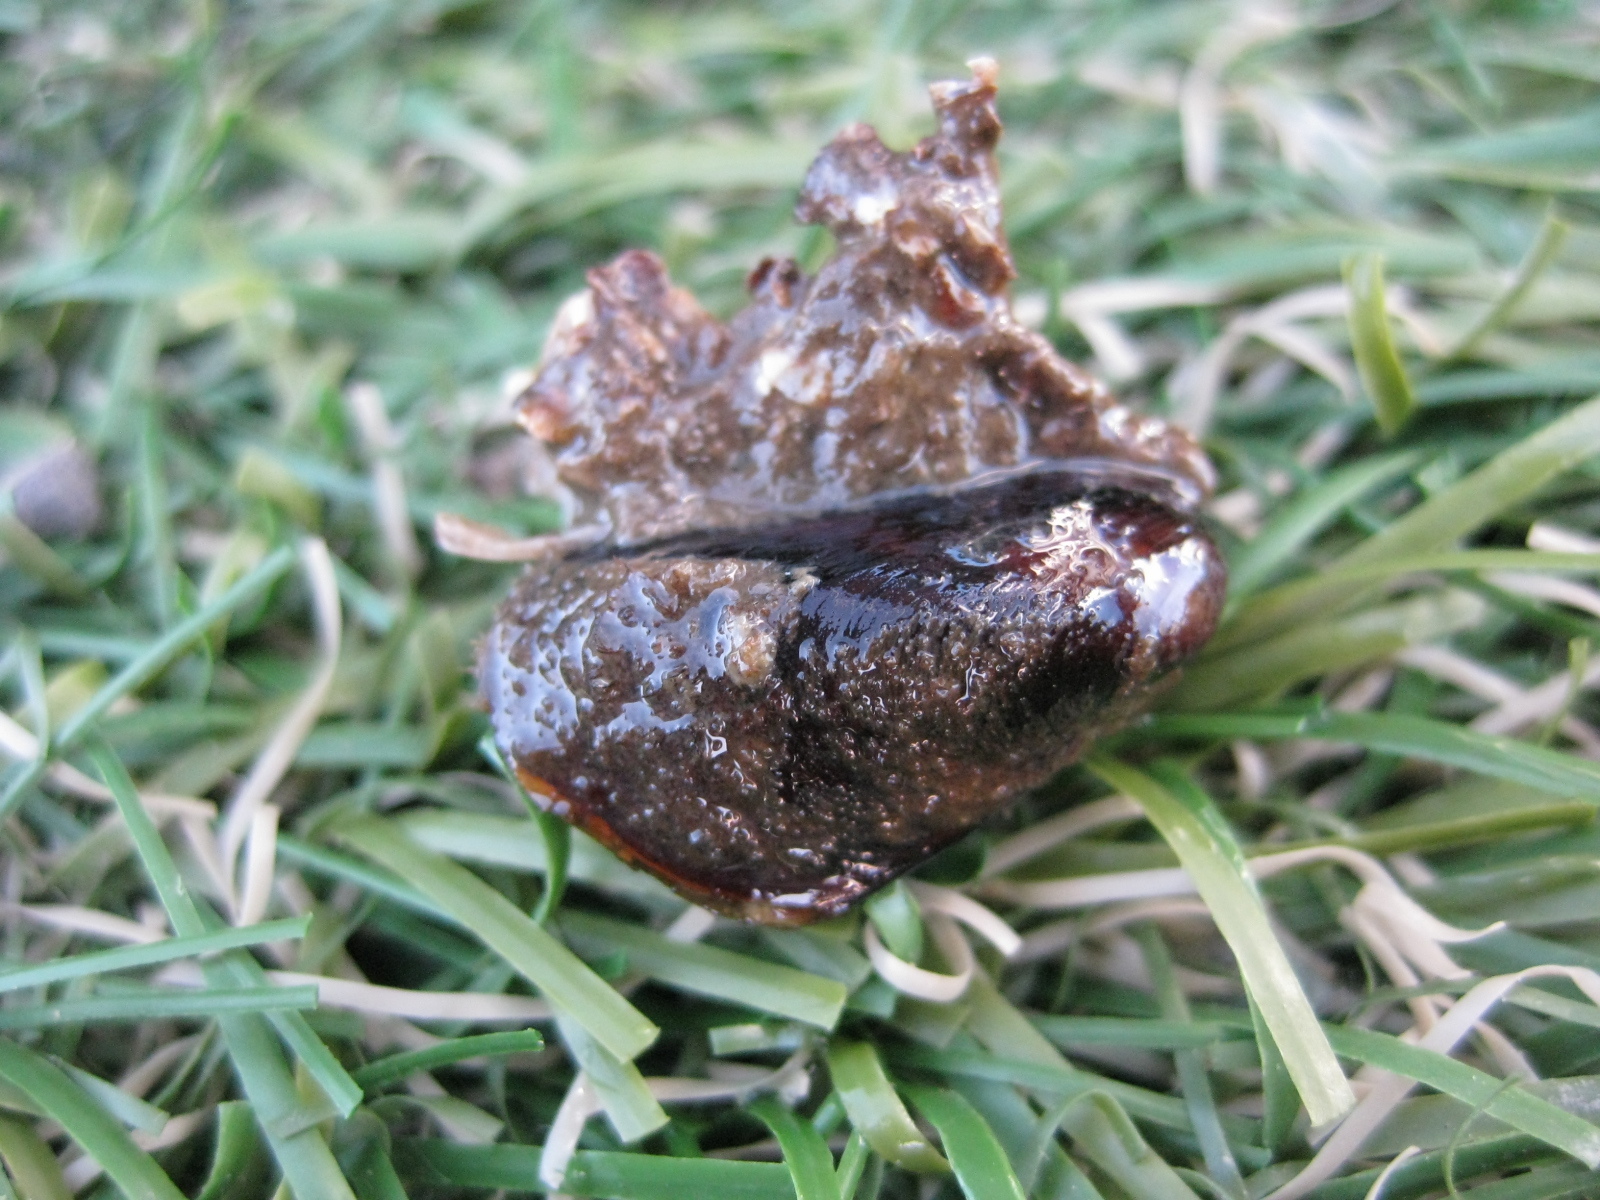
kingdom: Animalia
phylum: Mollusca
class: Bivalvia
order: Mytilida
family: Mytilidae
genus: Xenostrobus
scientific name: Xenostrobus securis
